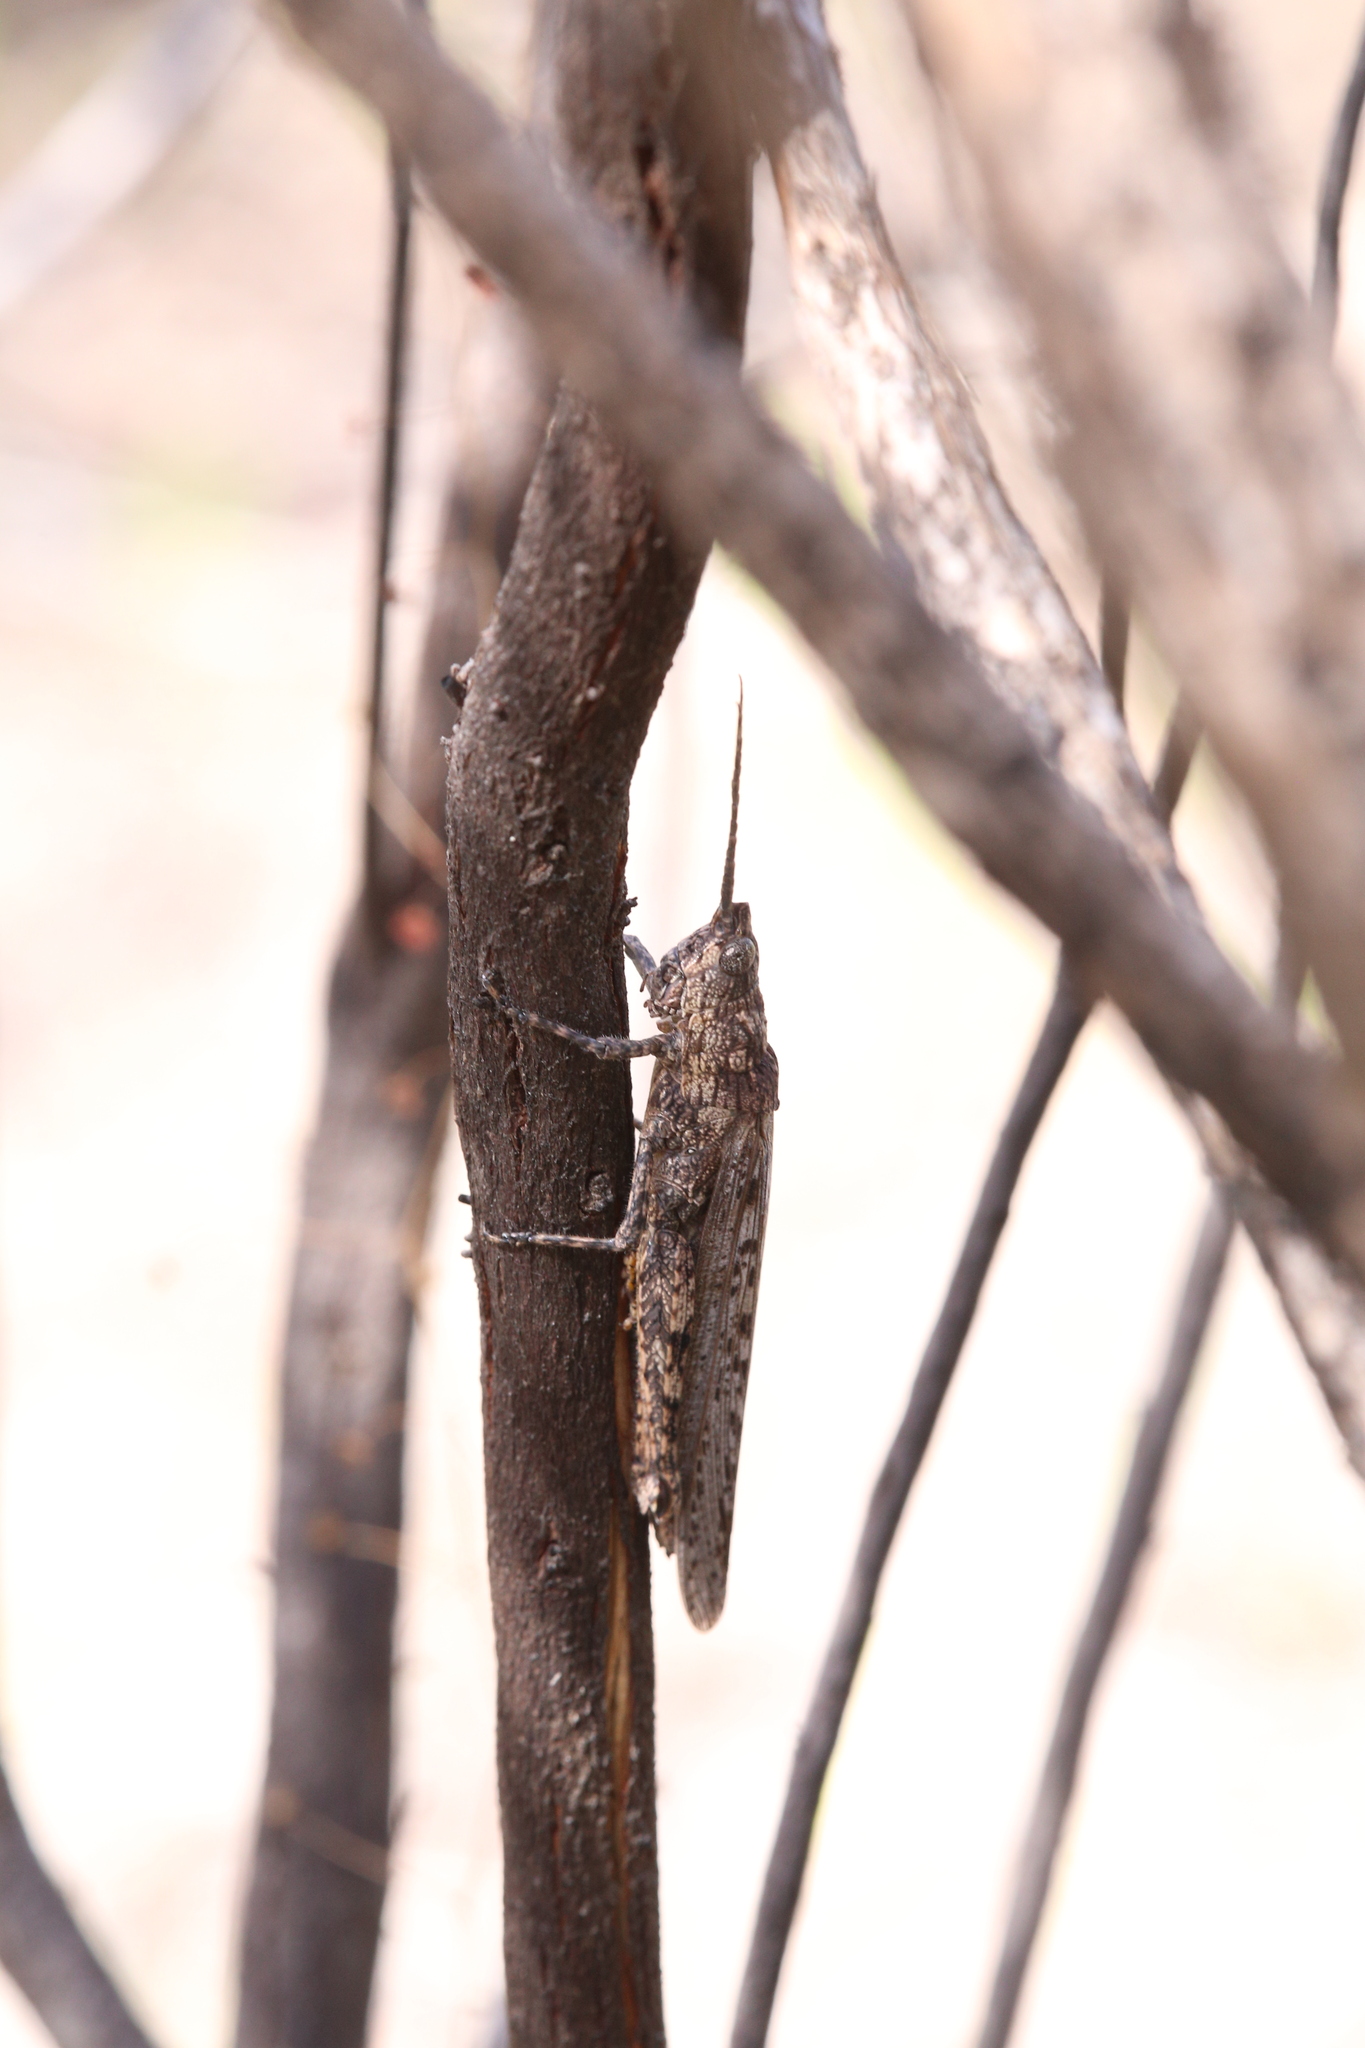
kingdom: Animalia
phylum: Arthropoda
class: Insecta
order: Orthoptera
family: Acrididae
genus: Coryphistes
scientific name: Coryphistes ruricola
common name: Bark-mimicking grasshopper
